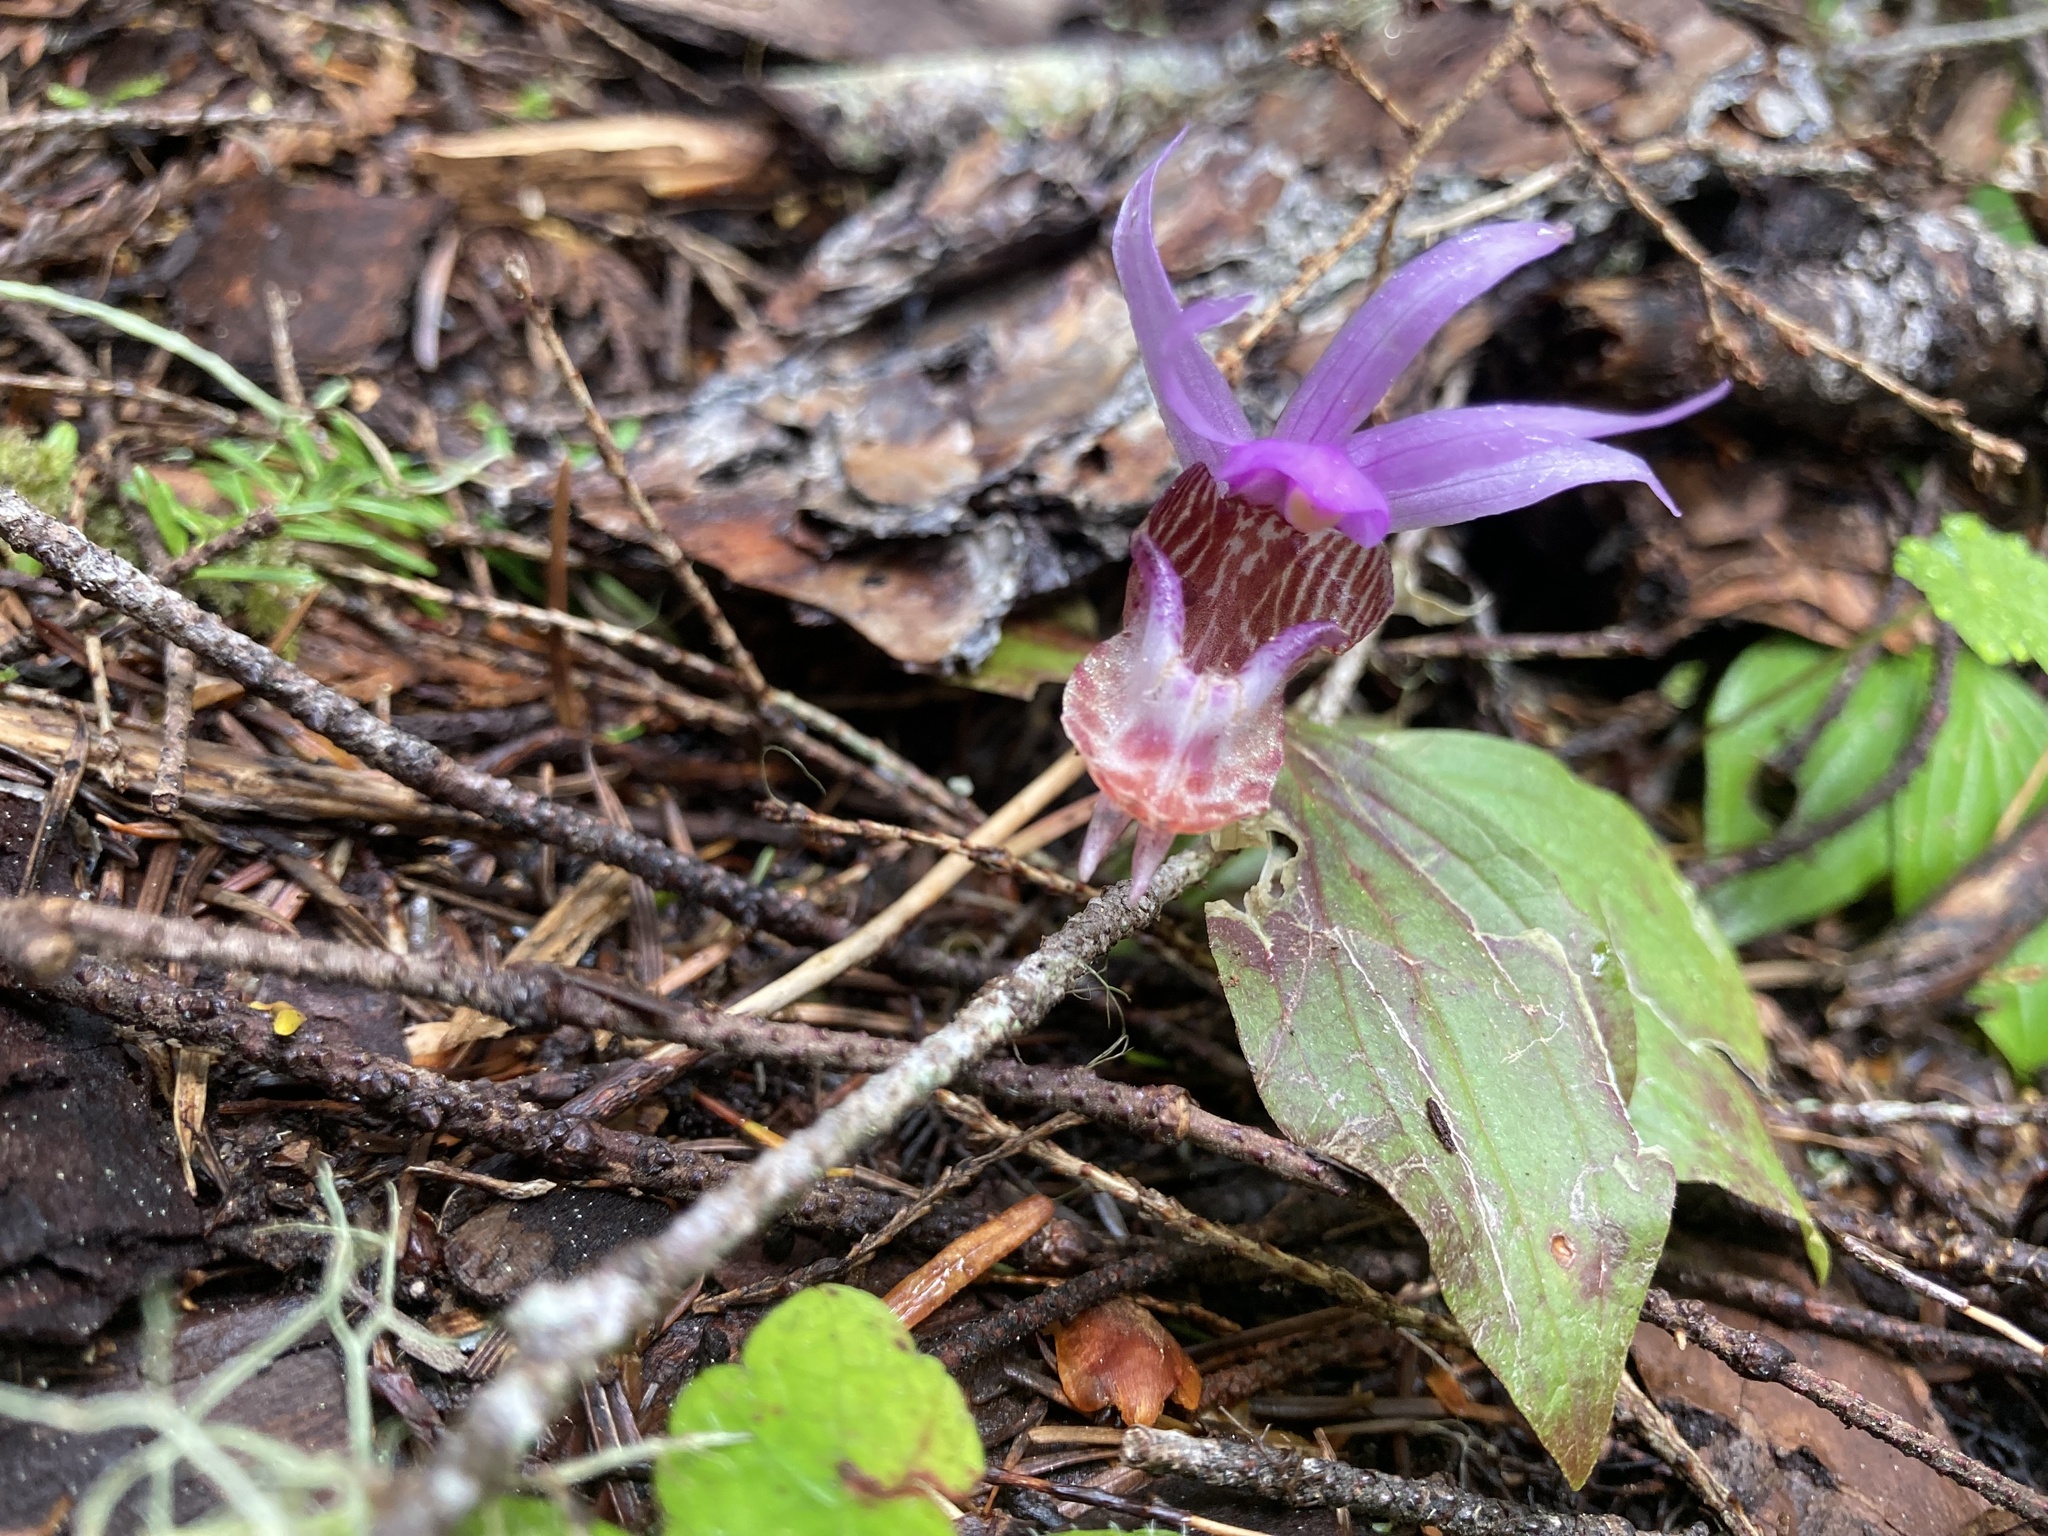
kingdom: Plantae
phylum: Tracheophyta
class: Liliopsida
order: Asparagales
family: Orchidaceae
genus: Calypso
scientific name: Calypso bulbosa
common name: Calypso
